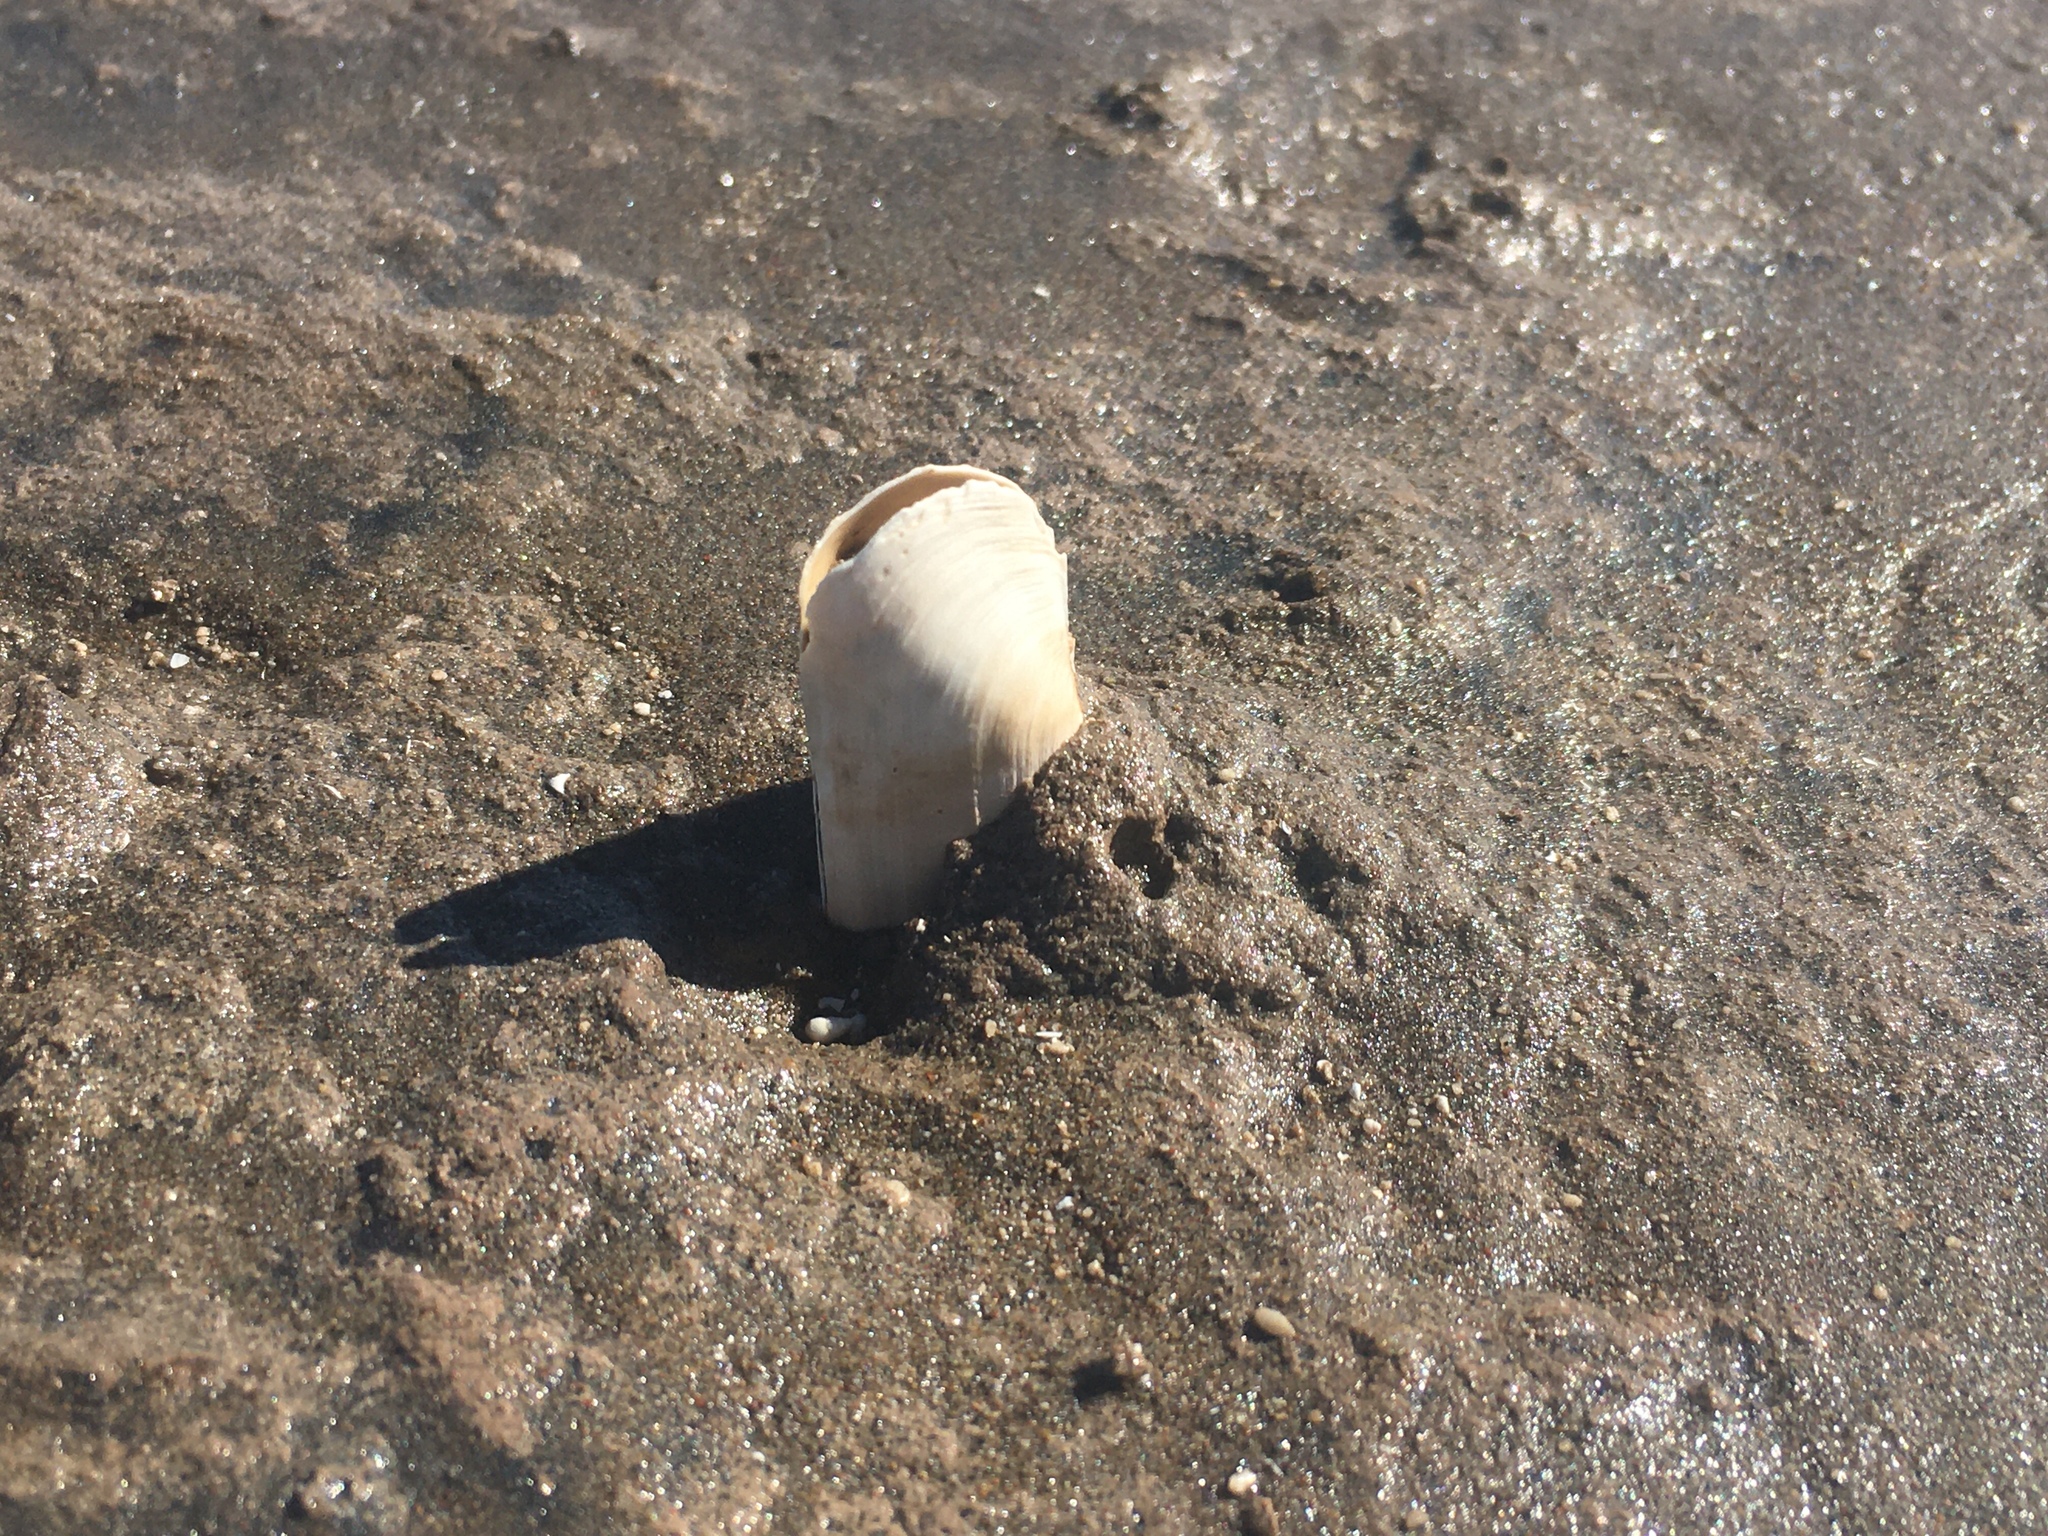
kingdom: Animalia
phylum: Mollusca
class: Bivalvia
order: Cardiida
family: Solecurtidae
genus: Tagelus
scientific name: Tagelus plebeius
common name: Stout tagelus
